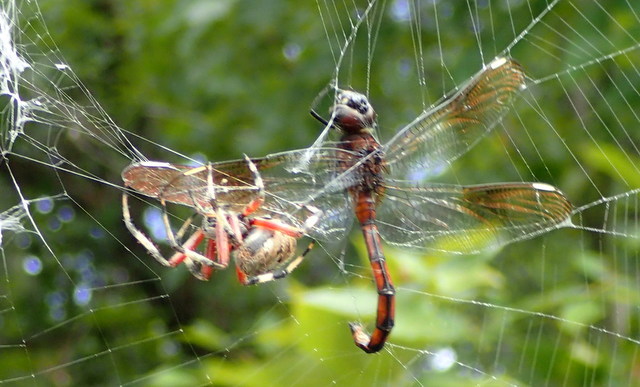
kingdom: Animalia
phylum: Arthropoda
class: Arachnida
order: Araneae
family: Araneidae
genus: Neoscona
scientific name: Neoscona domiciliorum
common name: Red-femured spotted orbweaver
